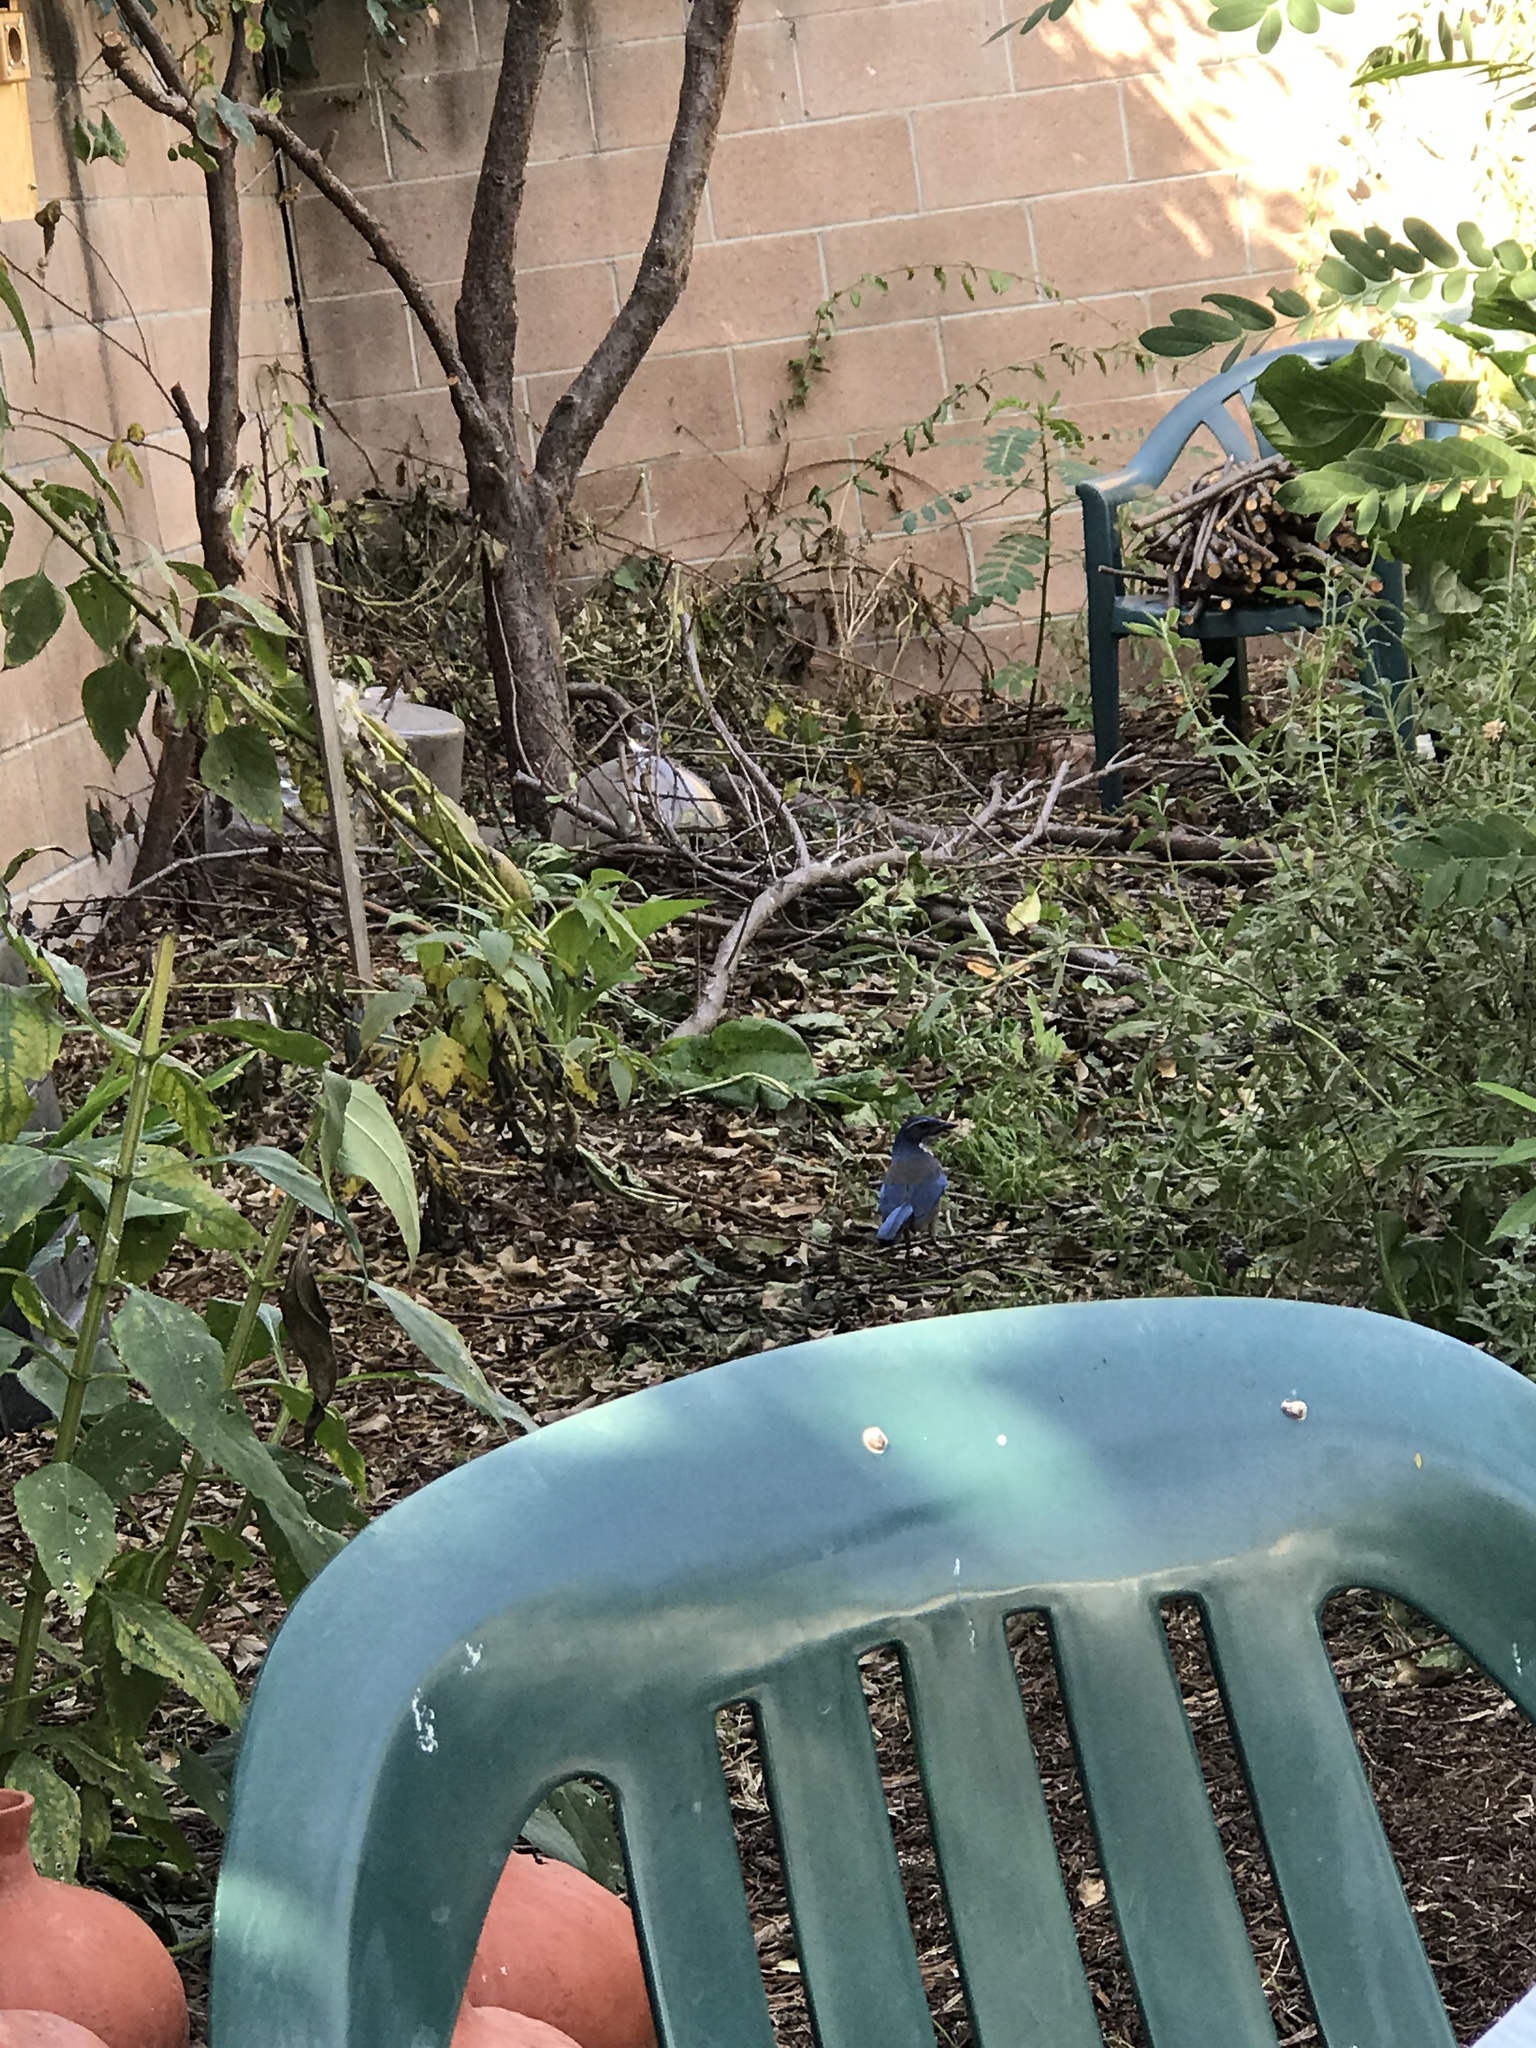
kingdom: Animalia
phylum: Chordata
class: Aves
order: Passeriformes
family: Corvidae
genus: Aphelocoma
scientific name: Aphelocoma californica
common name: California scrub-jay
